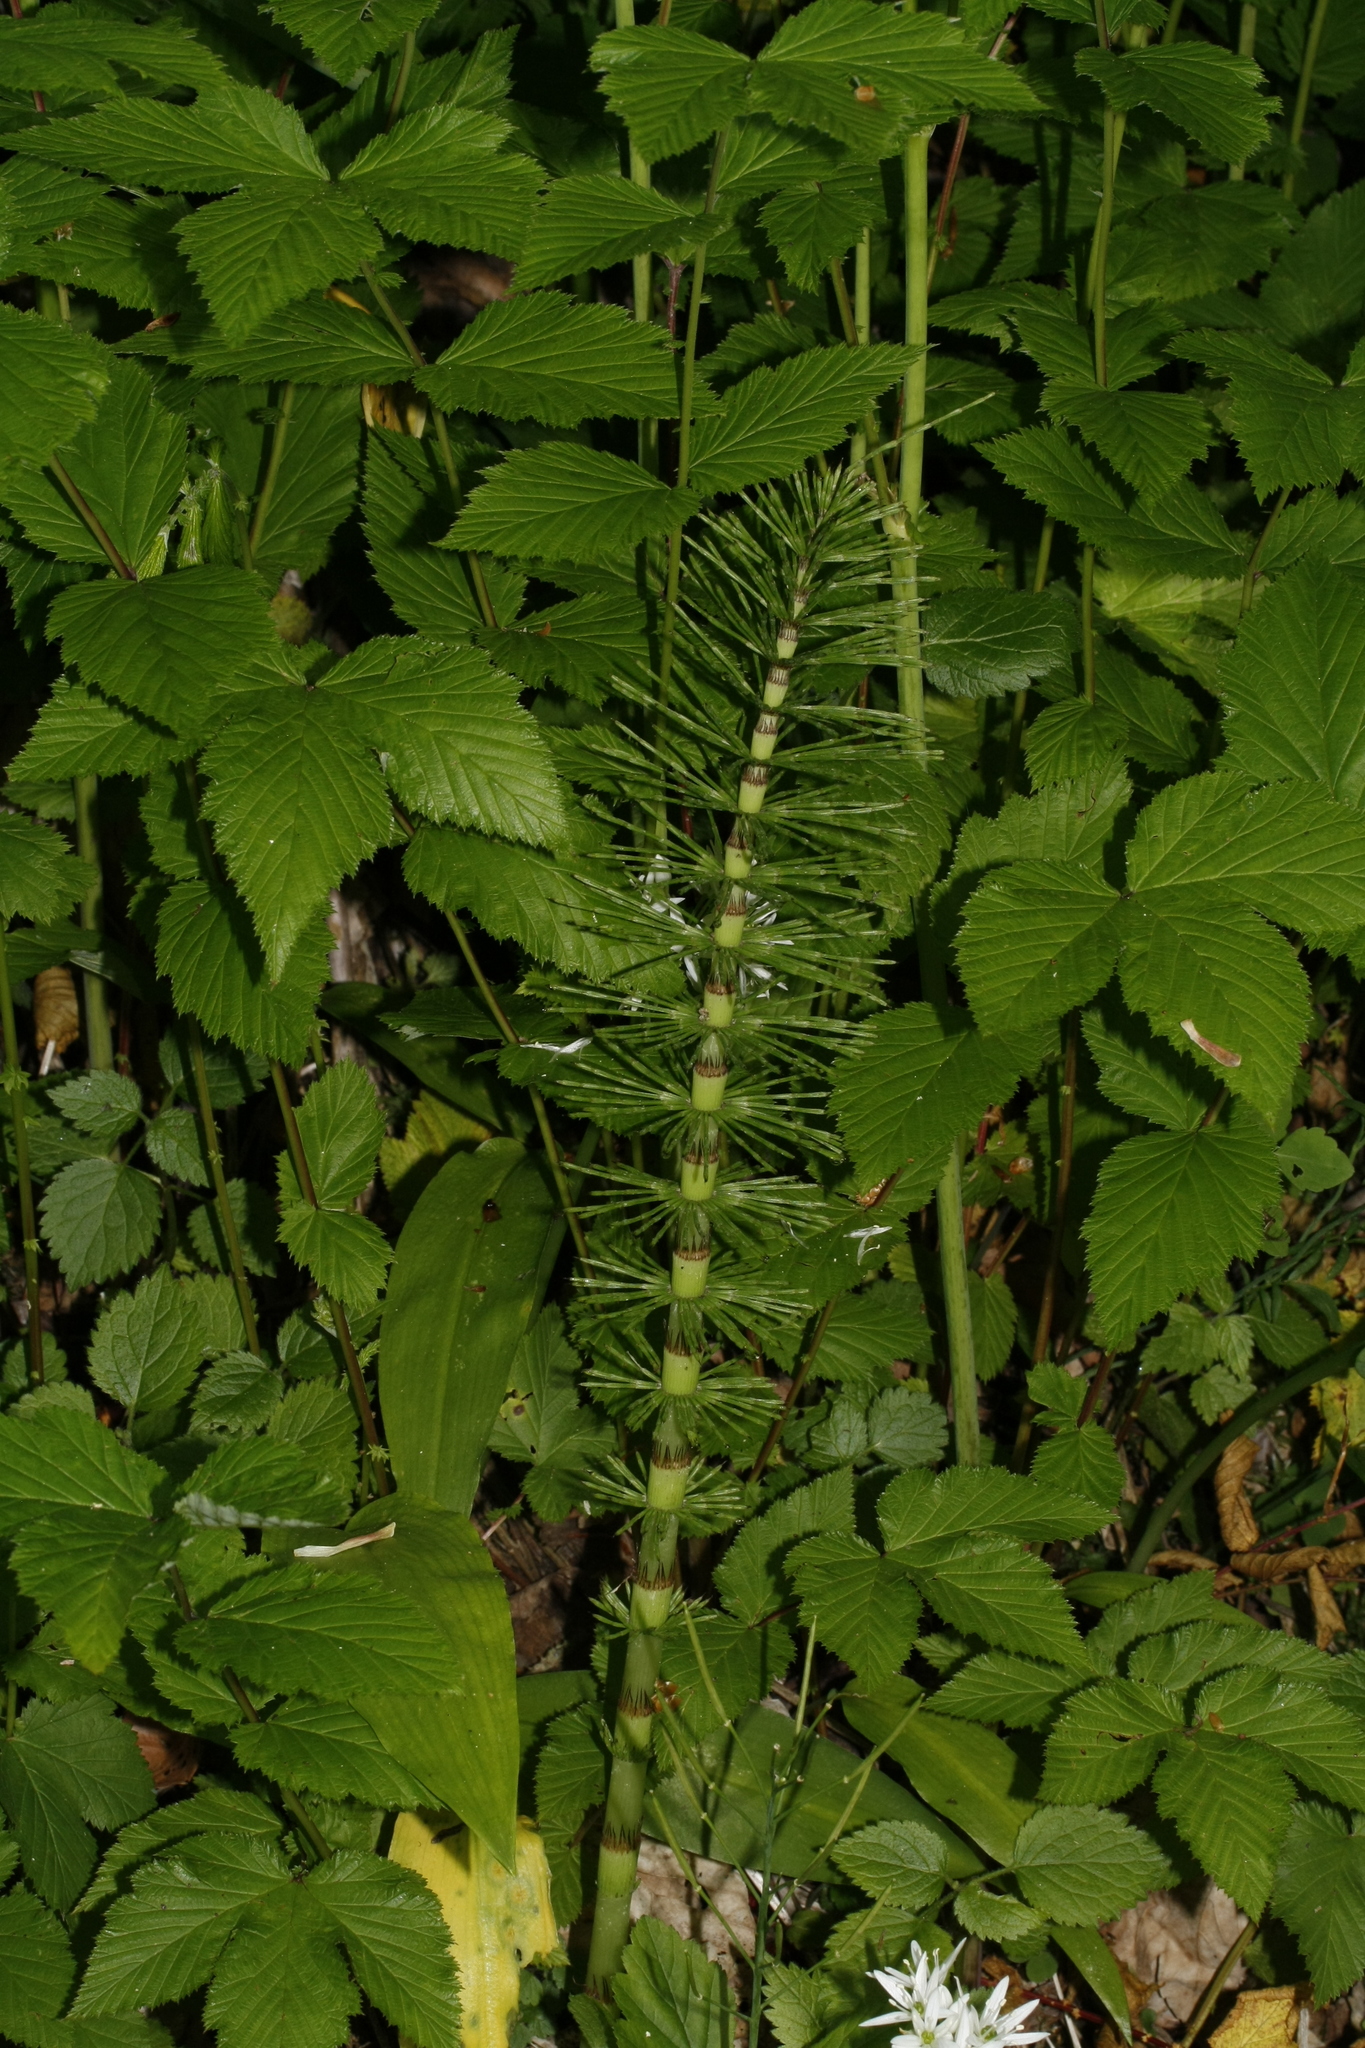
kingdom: Plantae
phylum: Tracheophyta
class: Polypodiopsida
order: Equisetales
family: Equisetaceae
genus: Equisetum
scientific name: Equisetum telmateia
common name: Great horsetail
